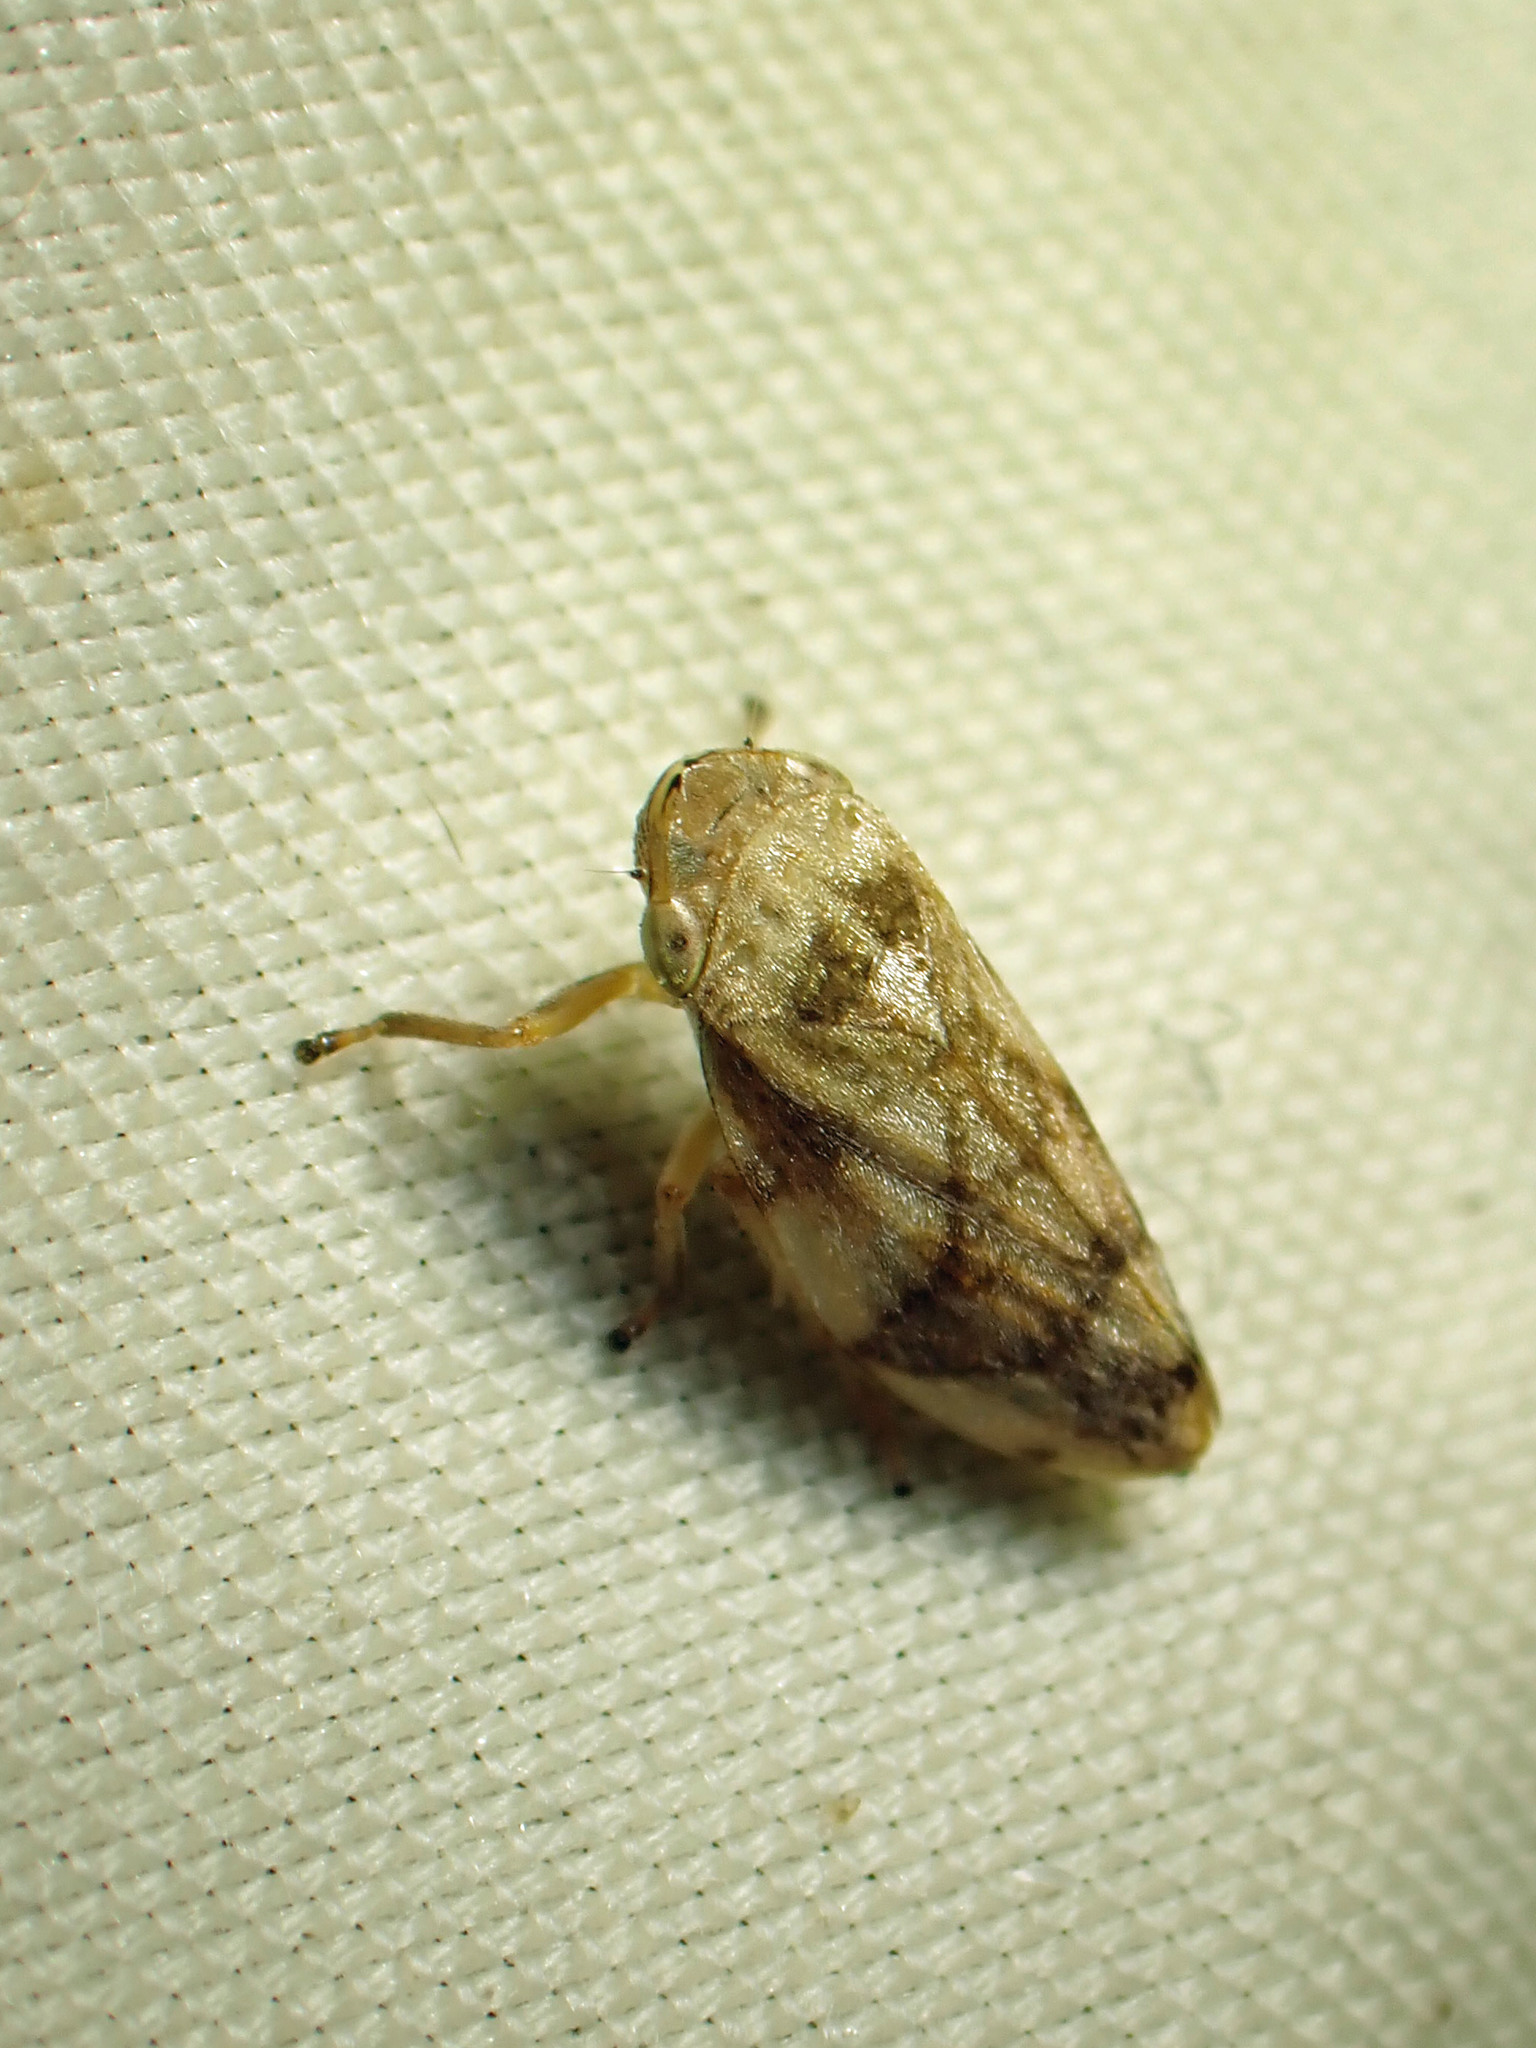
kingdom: Animalia
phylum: Arthropoda
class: Insecta
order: Hemiptera
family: Aphrophoridae
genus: Philaenus
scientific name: Philaenus spumarius
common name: Meadow spittlebug
